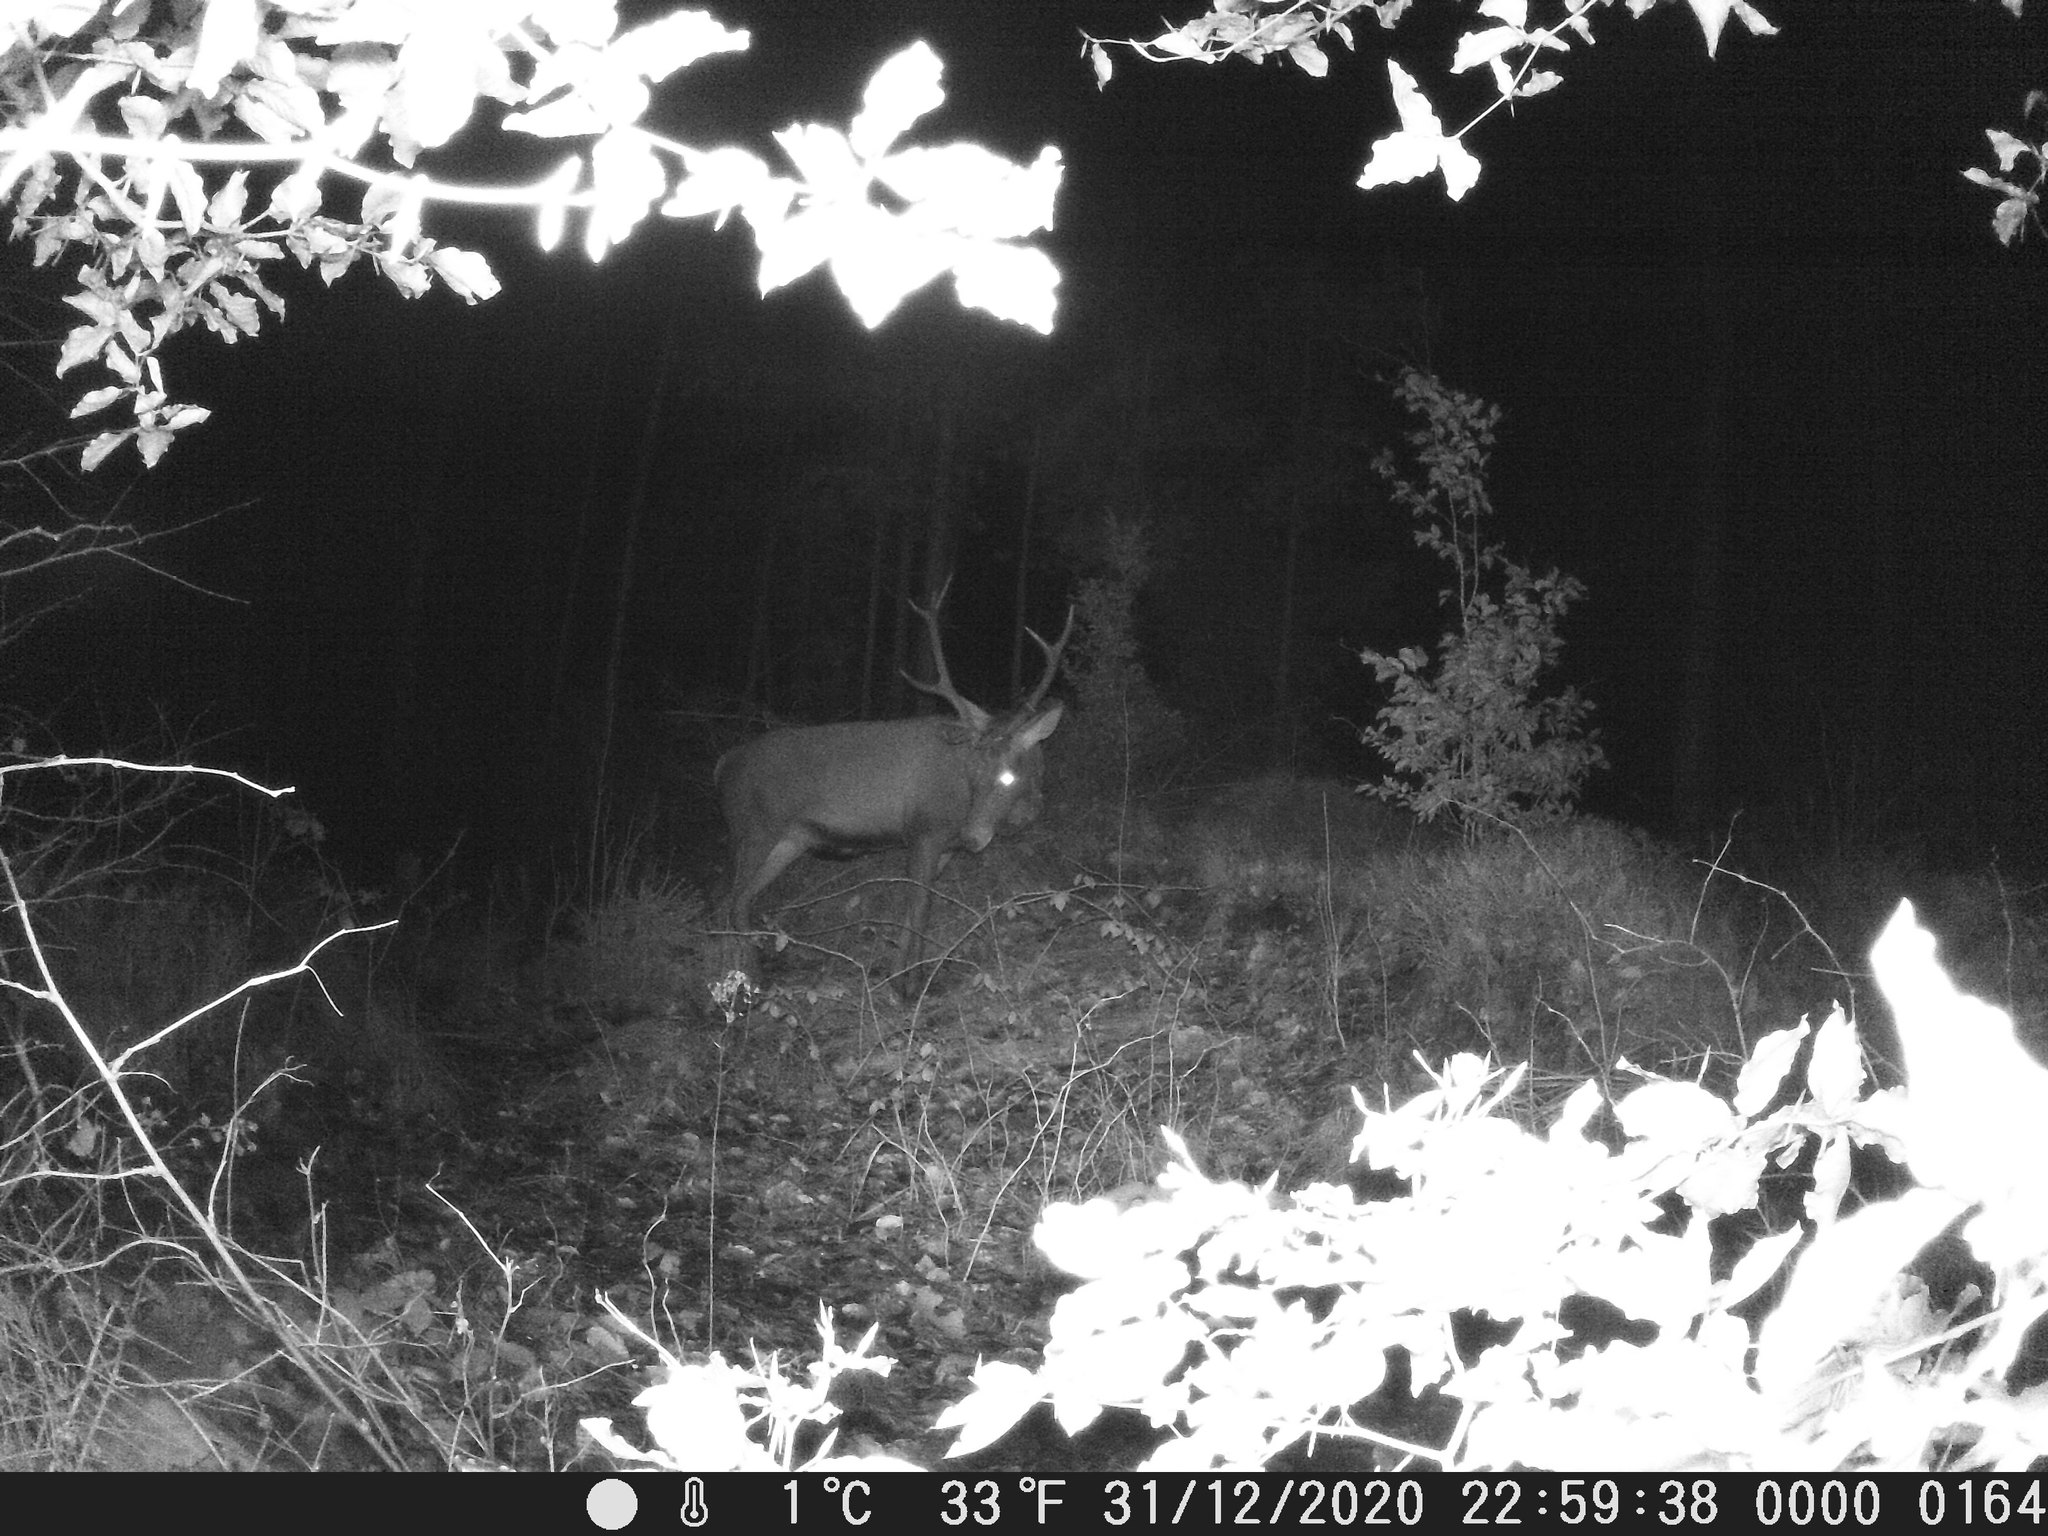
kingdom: Animalia
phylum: Chordata
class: Mammalia
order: Artiodactyla
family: Cervidae
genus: Cervus
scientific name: Cervus elaphus
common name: Red deer
